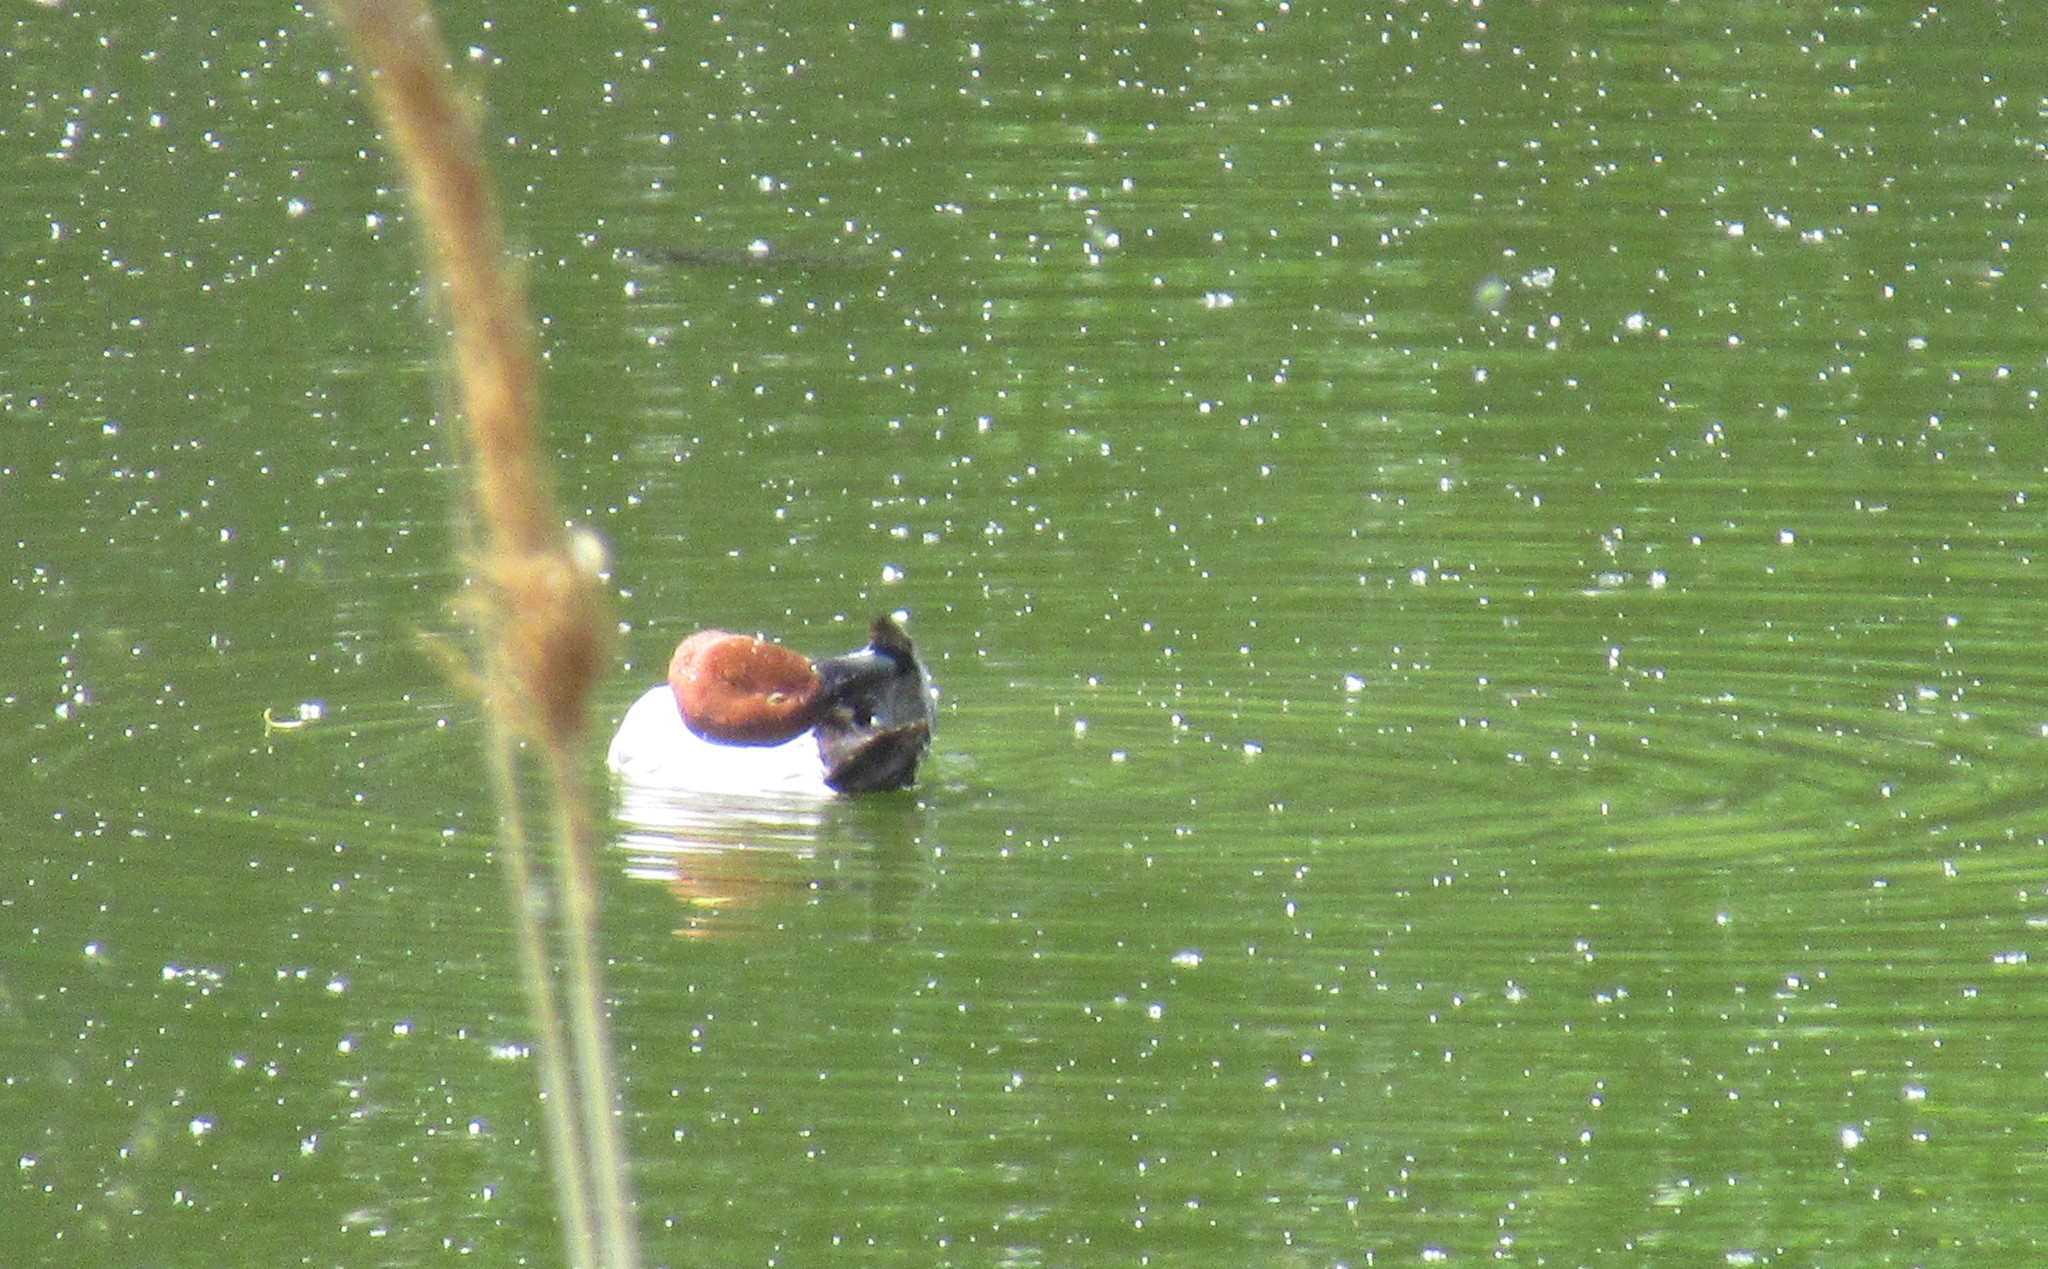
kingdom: Animalia
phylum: Chordata
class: Aves
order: Anseriformes
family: Anatidae
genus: Aythya
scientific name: Aythya ferina
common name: Common pochard
